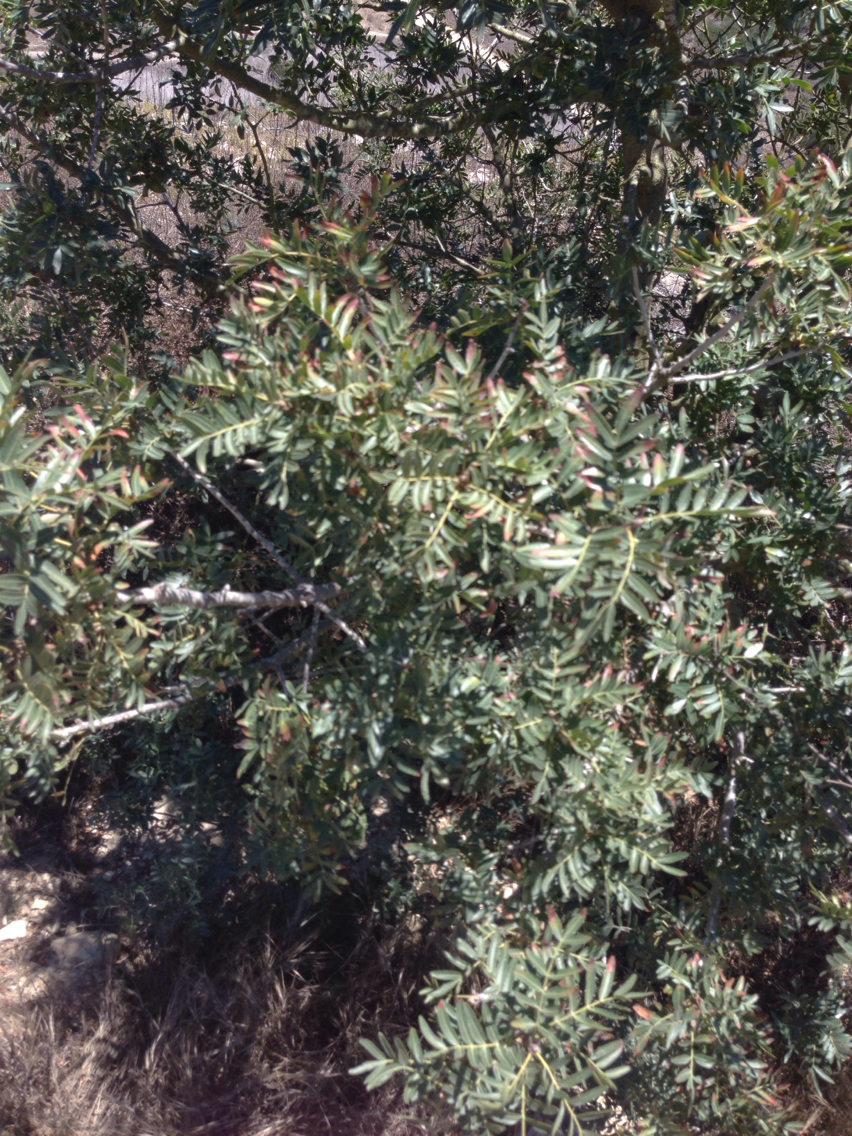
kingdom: Plantae
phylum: Tracheophyta
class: Magnoliopsida
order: Sapindales
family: Anacardiaceae
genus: Schinus
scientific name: Schinus terebinthifolia
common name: Brazilian peppertree
